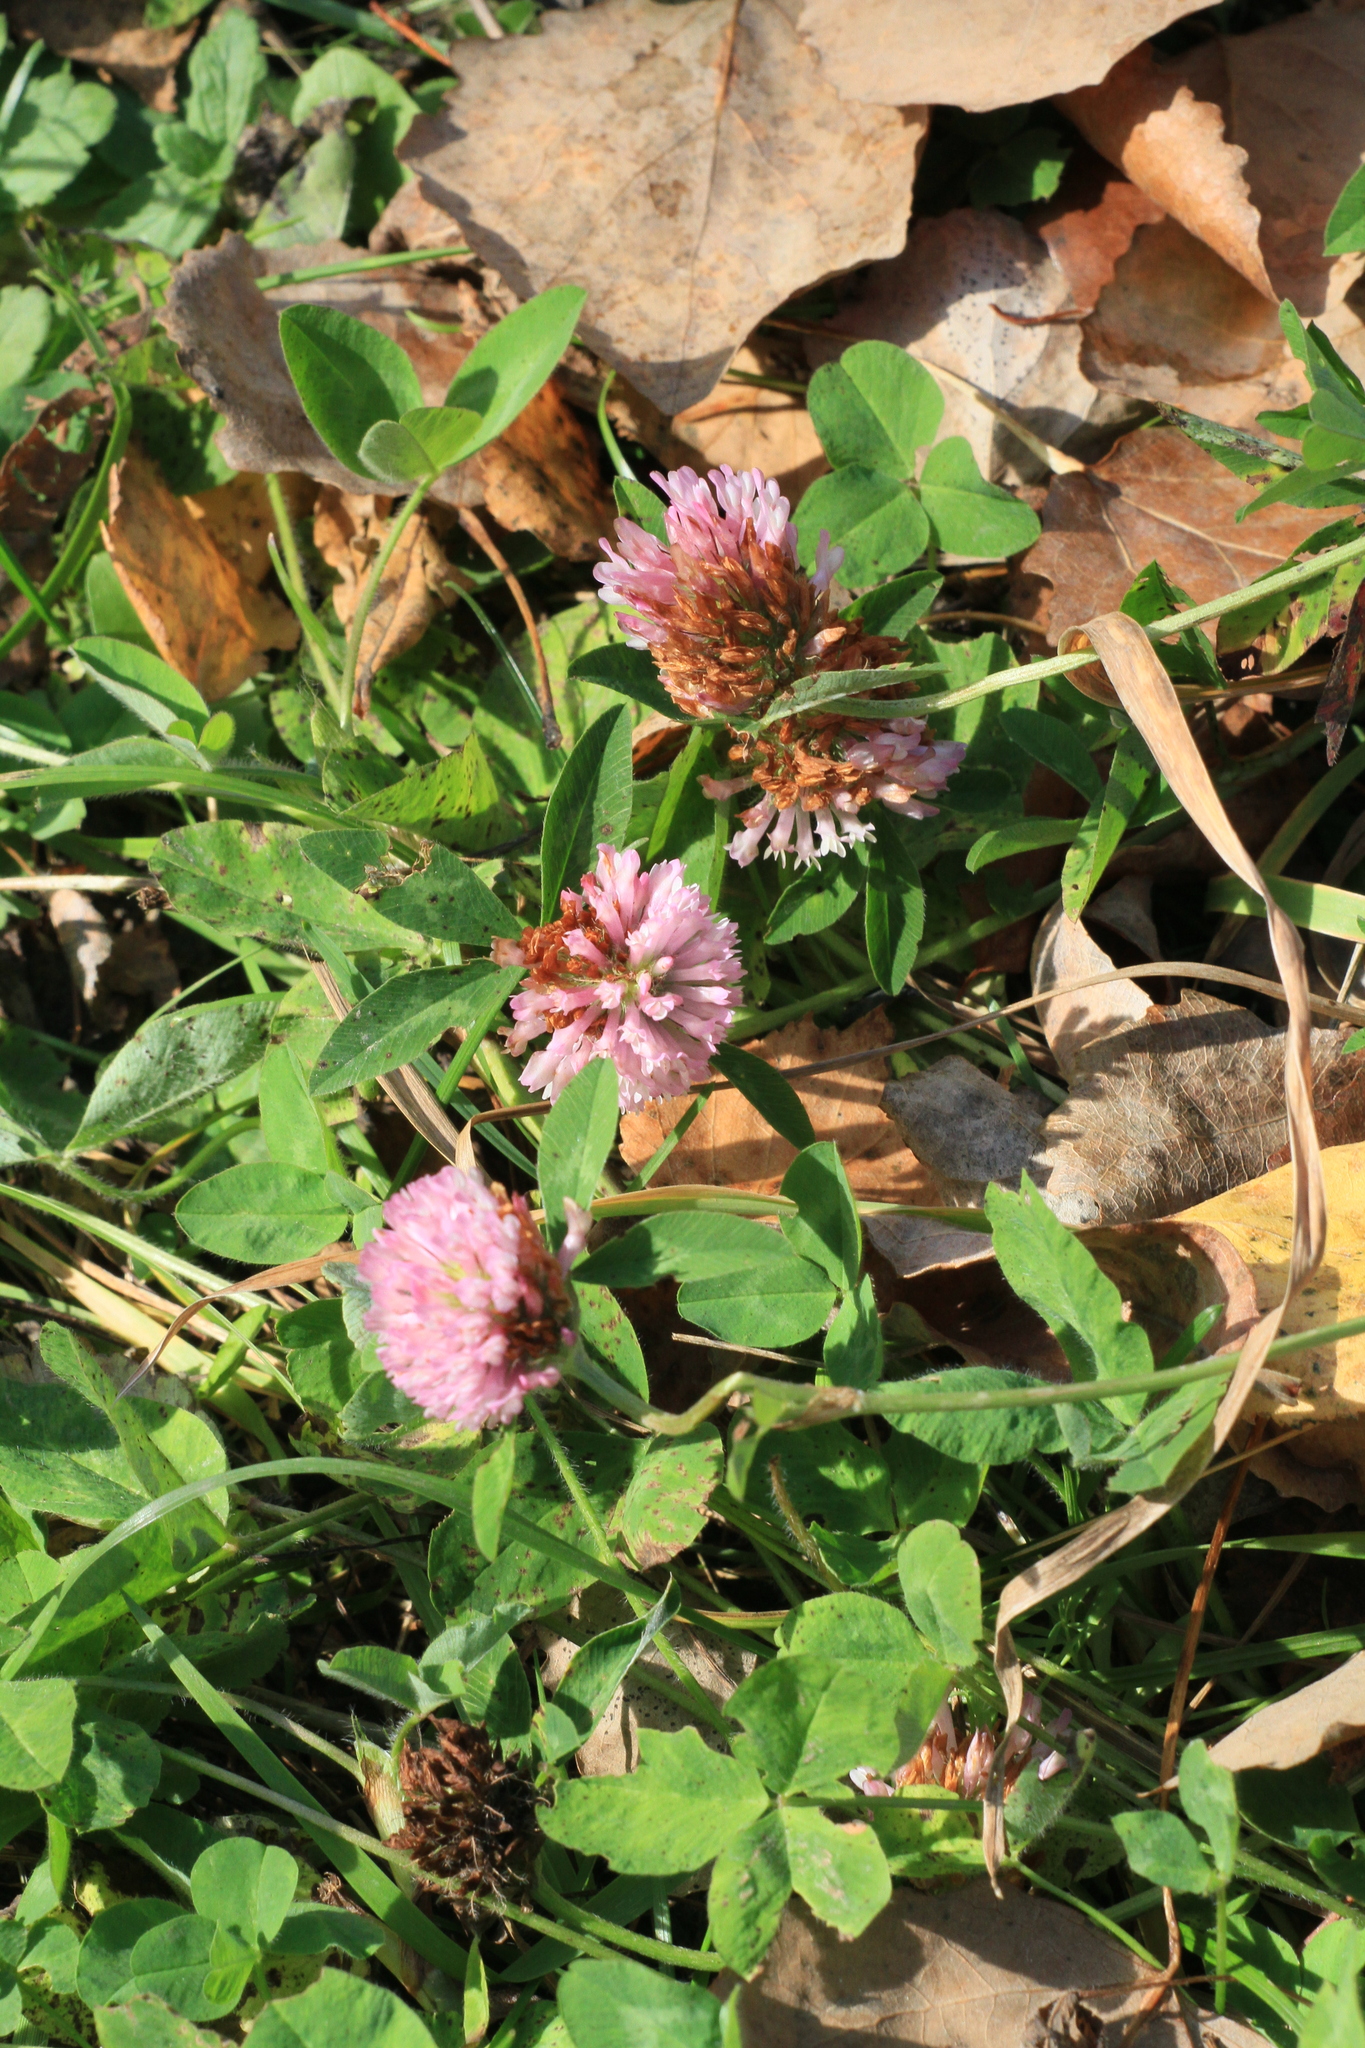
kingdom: Plantae
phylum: Tracheophyta
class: Magnoliopsida
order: Fabales
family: Fabaceae
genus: Trifolium
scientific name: Trifolium pratense
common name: Red clover
